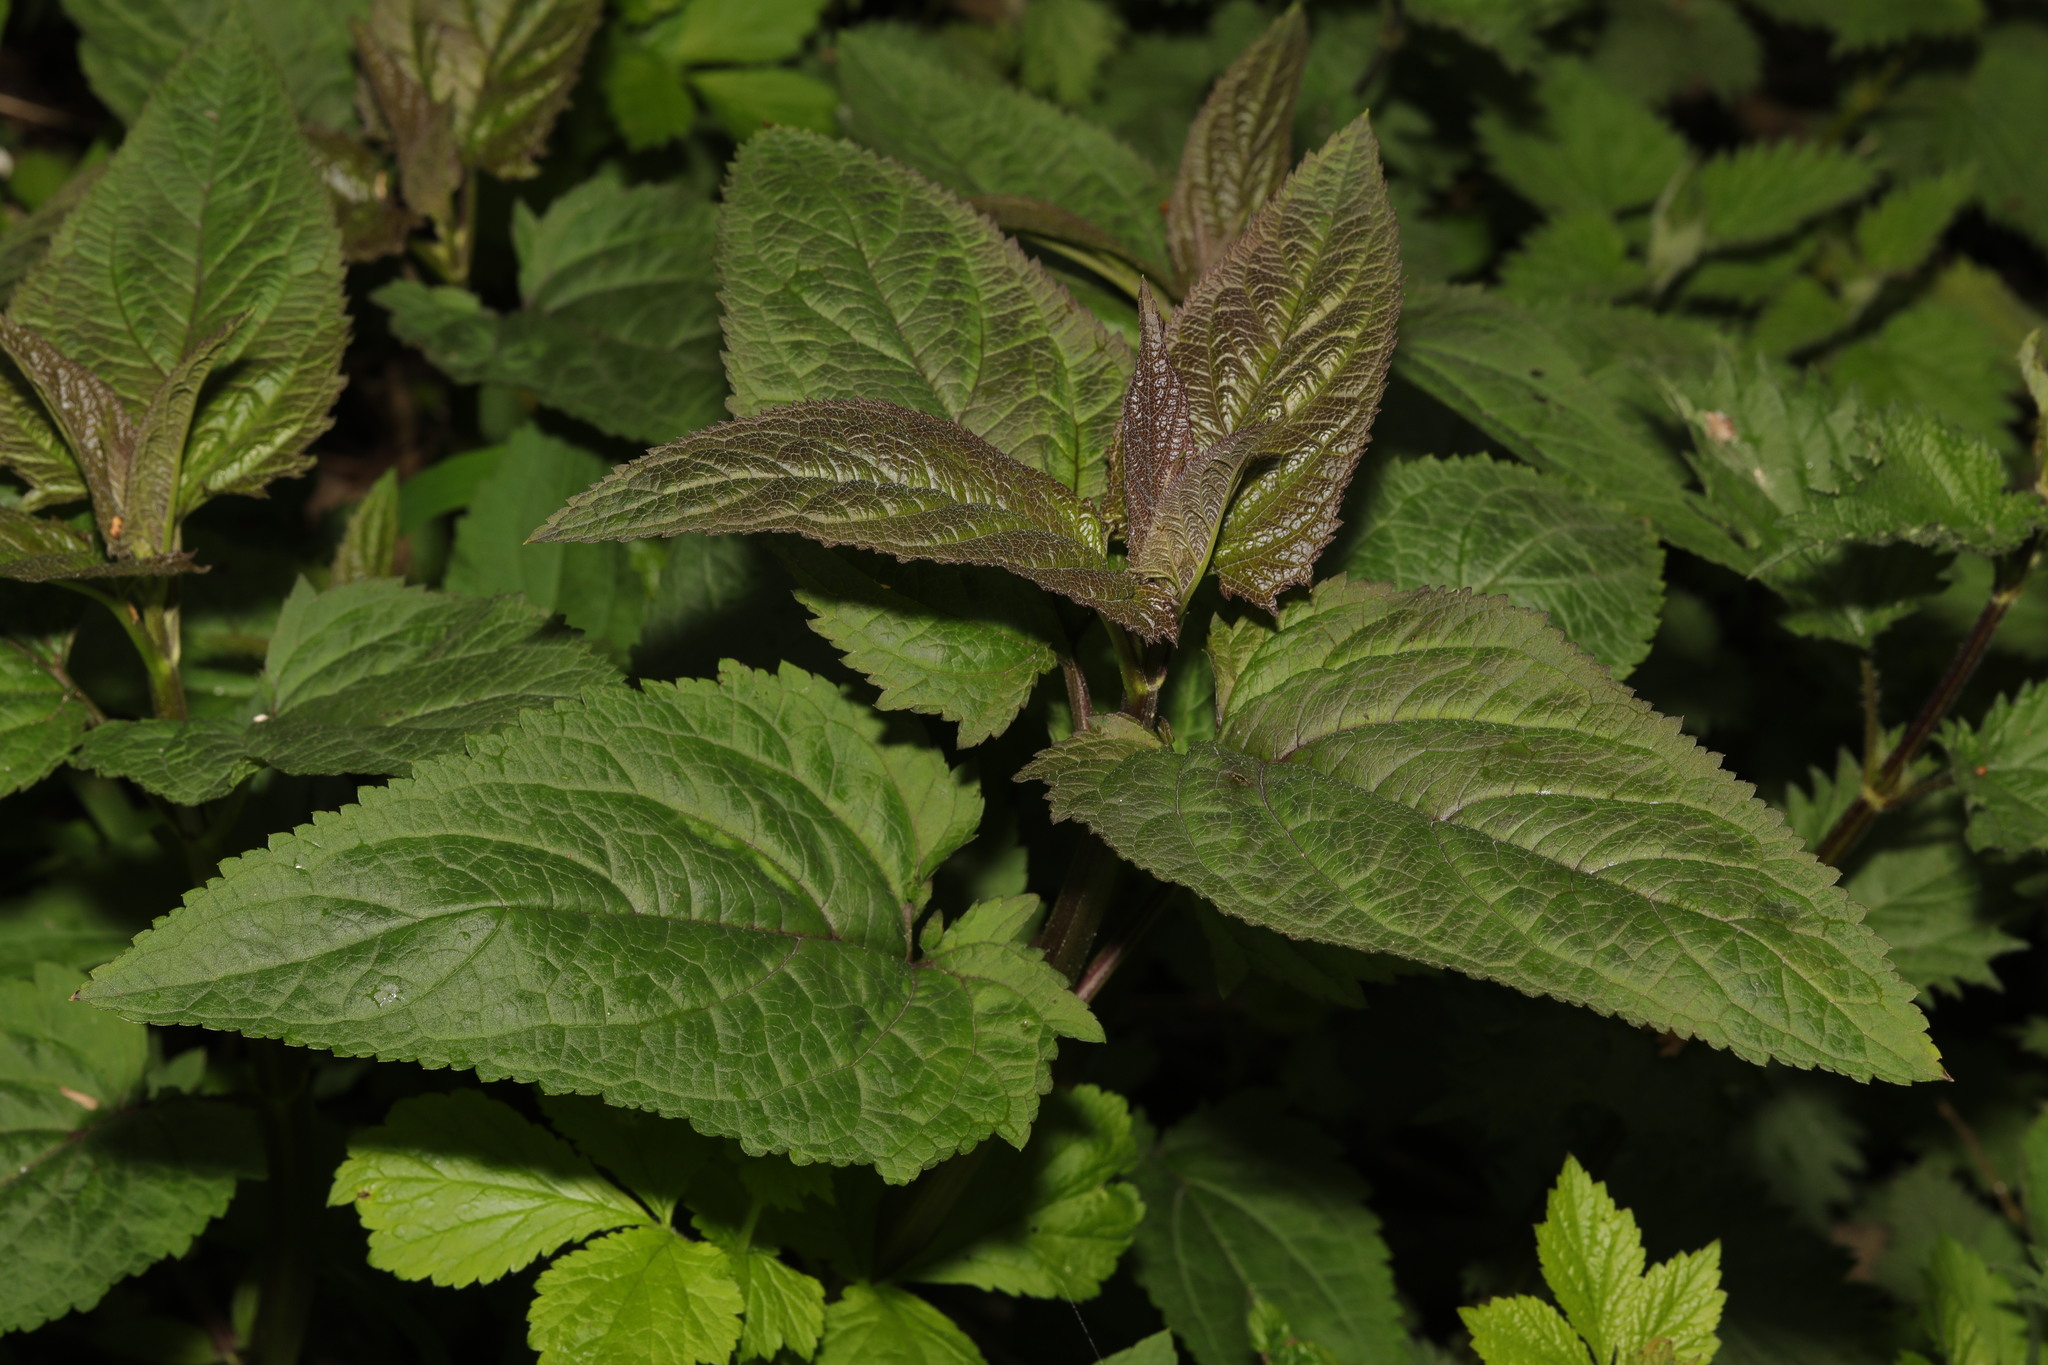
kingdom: Plantae
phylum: Tracheophyta
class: Magnoliopsida
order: Lamiales
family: Scrophulariaceae
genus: Scrophularia
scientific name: Scrophularia nodosa
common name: Common figwort
